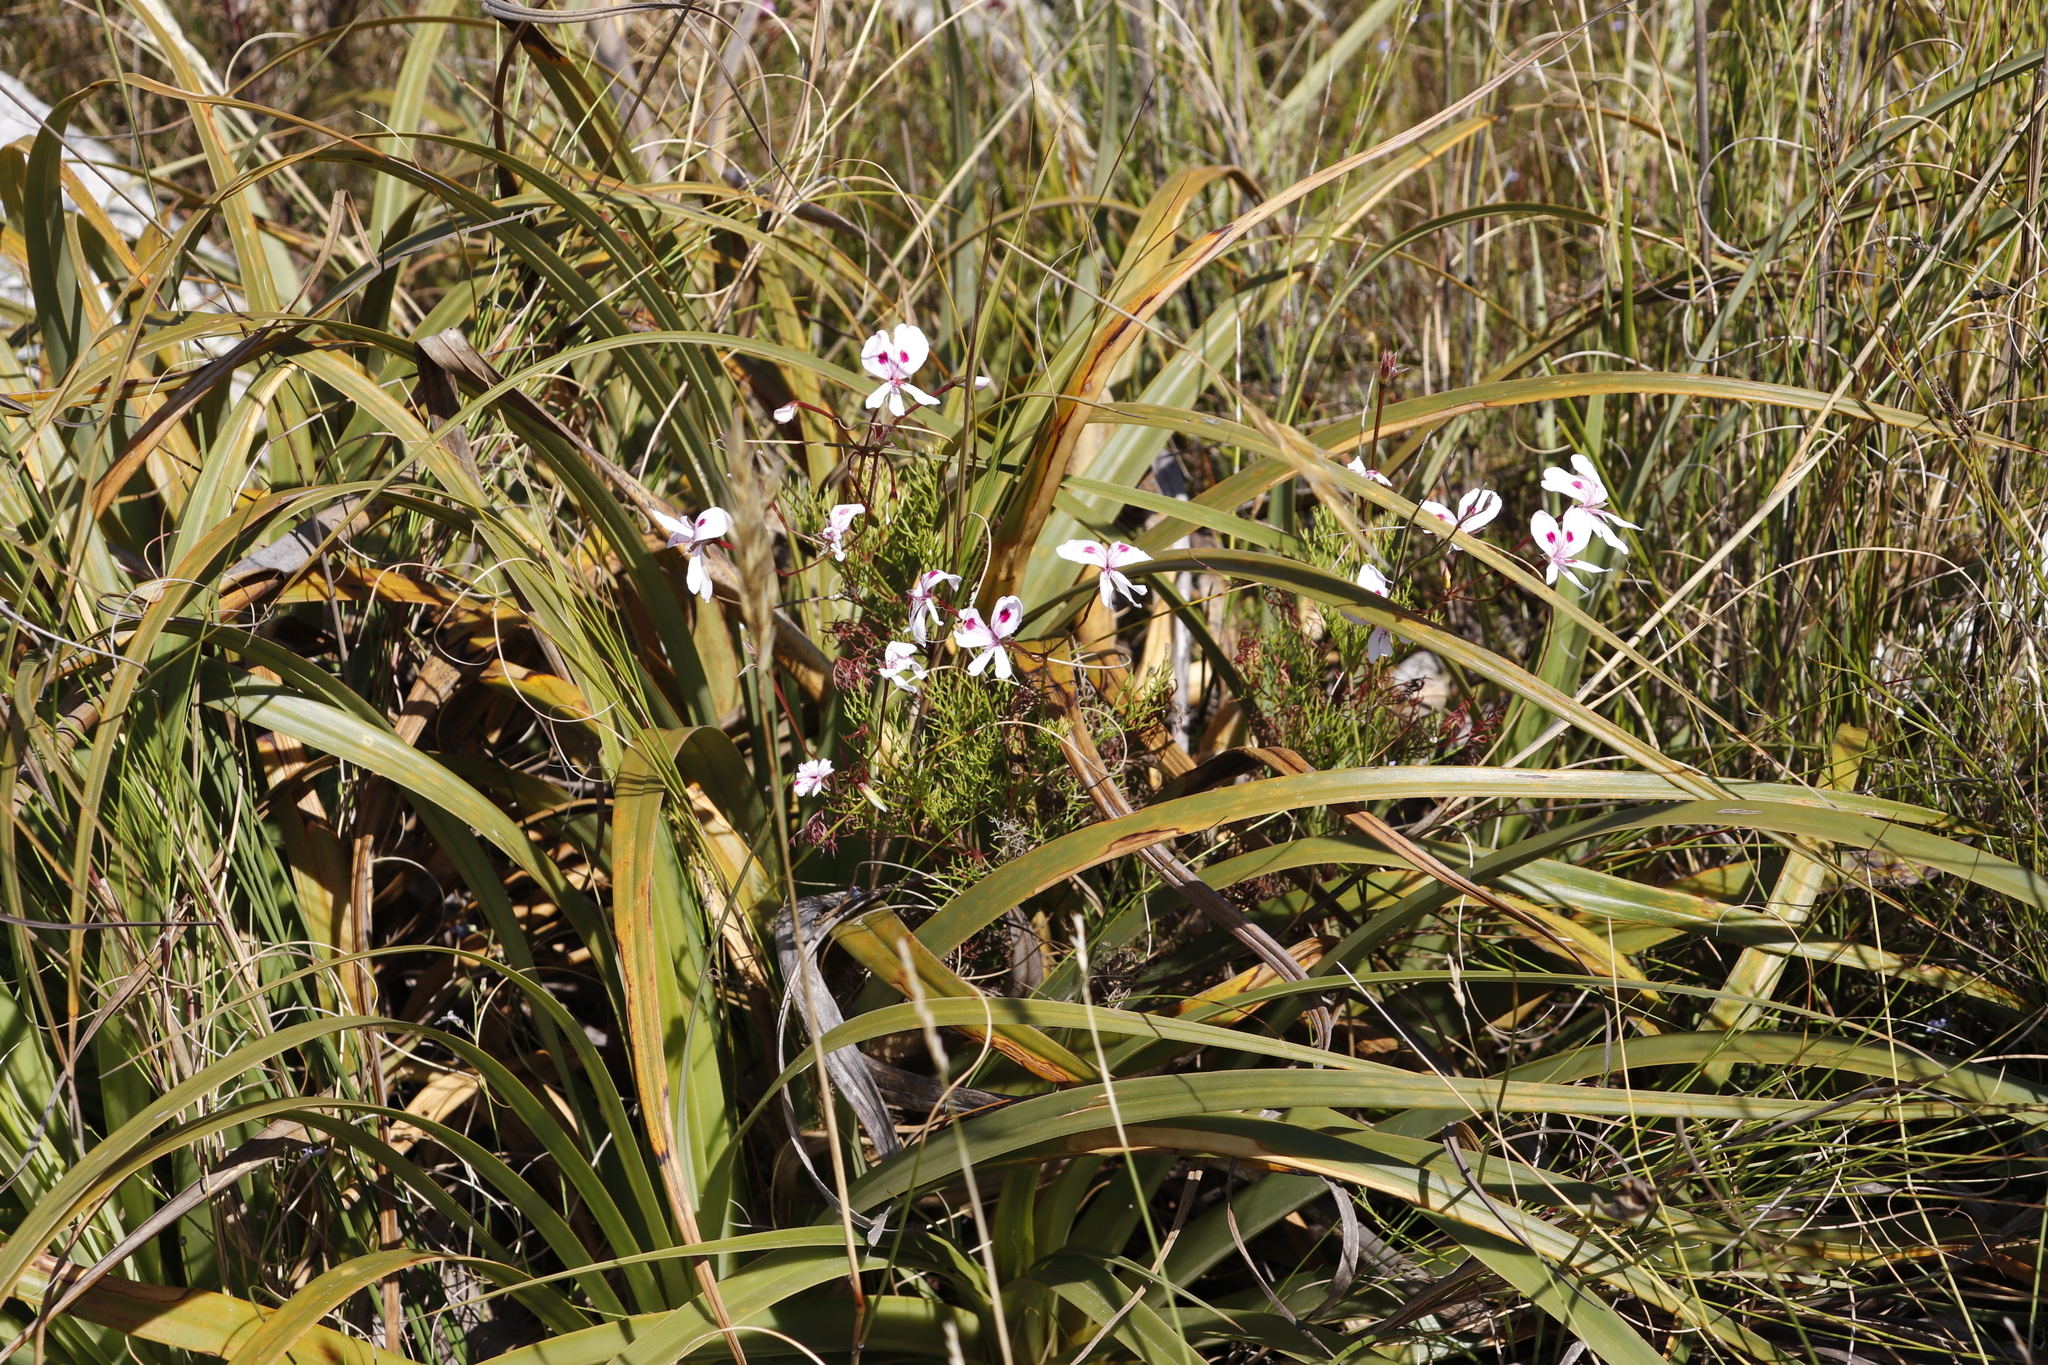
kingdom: Plantae
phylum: Tracheophyta
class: Magnoliopsida
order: Geraniales
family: Geraniaceae
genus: Pelargonium
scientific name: Pelargonium artemisiifolium
